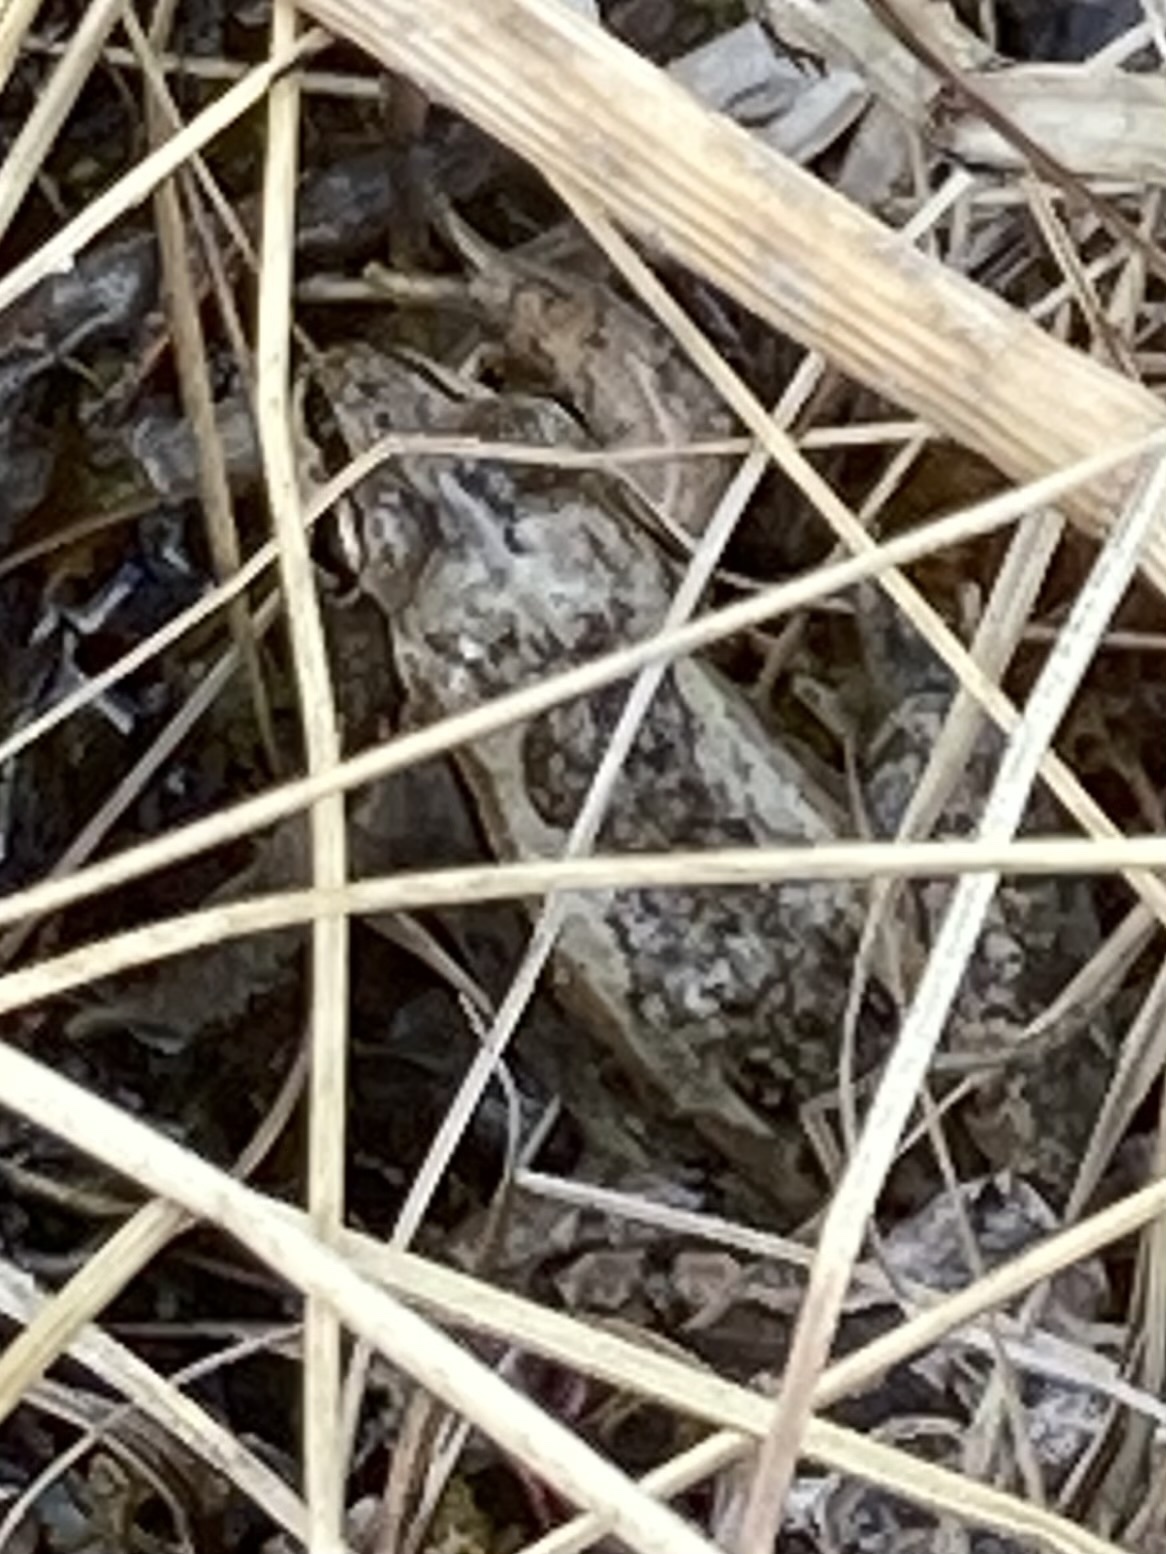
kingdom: Animalia
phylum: Chordata
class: Amphibia
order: Anura
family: Ranidae
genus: Lithobates
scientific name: Lithobates sylvaticus
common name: Wood frog
